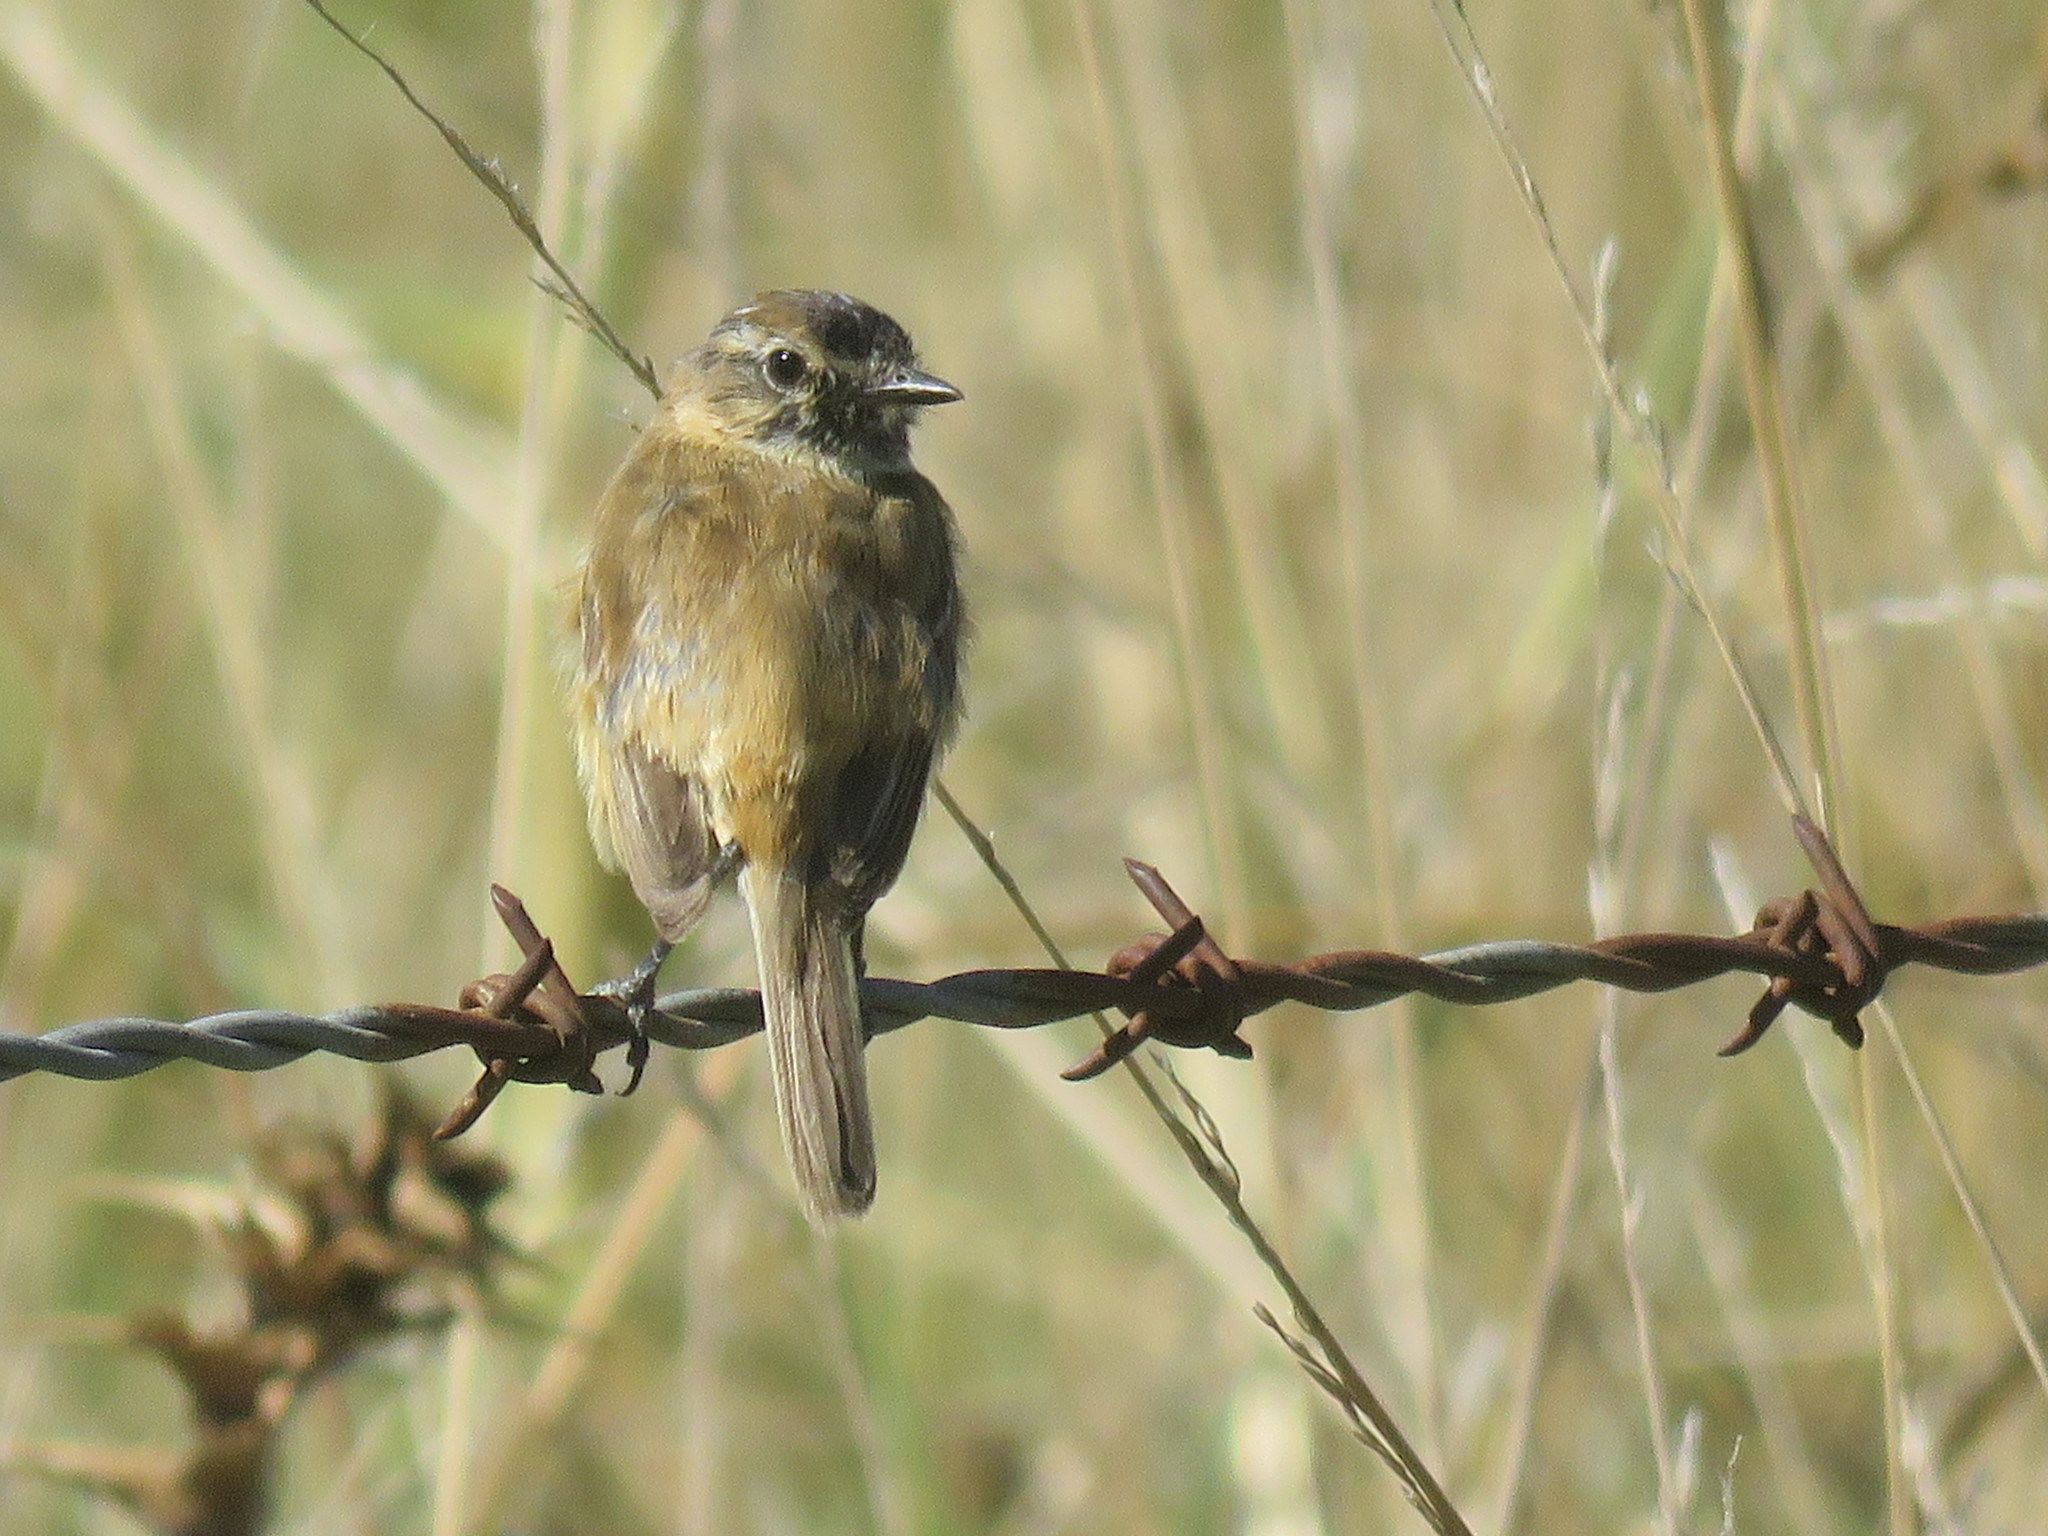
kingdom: Animalia
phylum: Chordata
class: Aves
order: Passeriformes
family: Tyrannidae
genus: Polystictus
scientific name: Polystictus pectoralis
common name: Bearded tachuri
